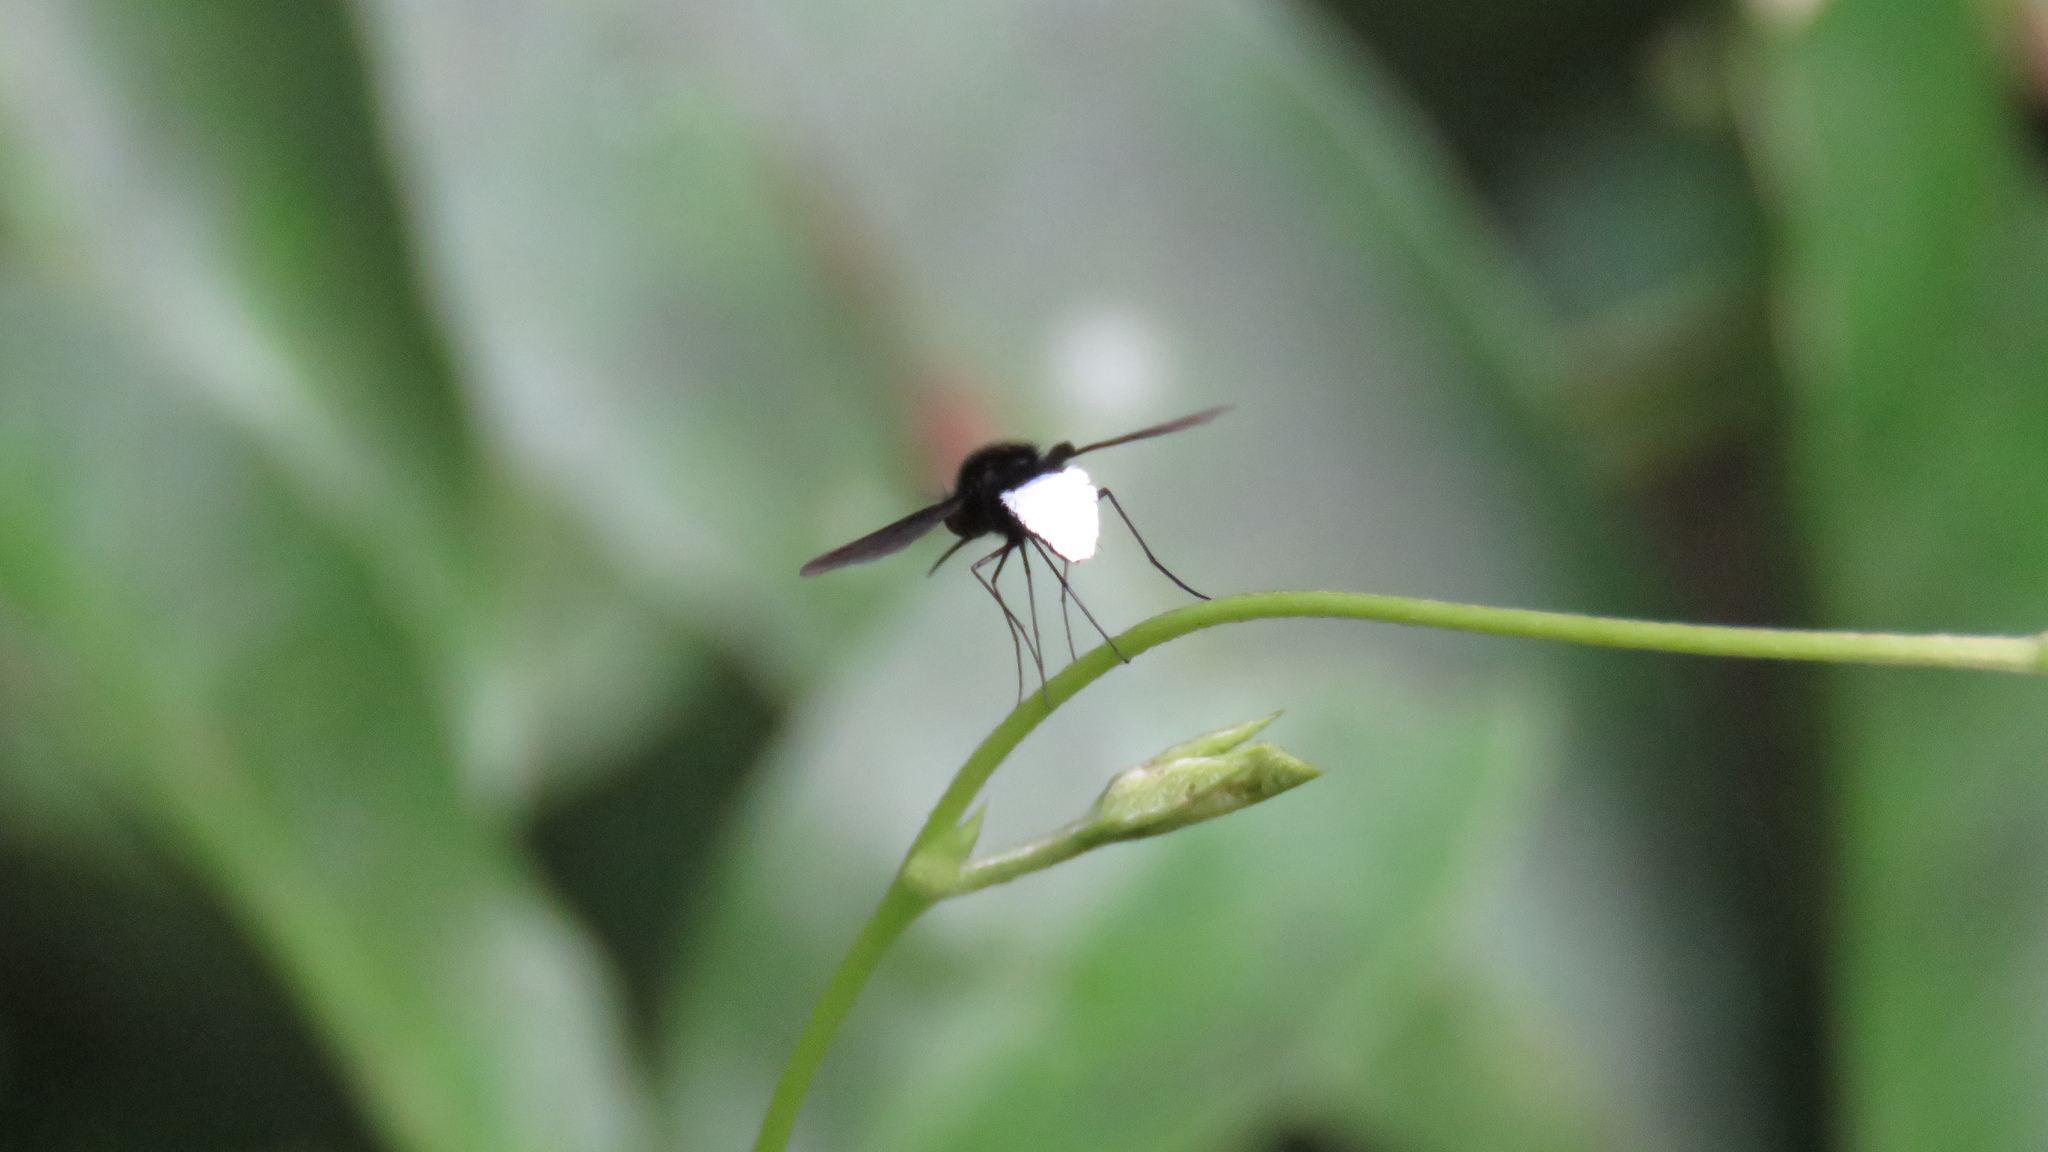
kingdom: Animalia
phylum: Arthropoda
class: Insecta
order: Diptera
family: Bombyliidae
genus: Euchariomyia
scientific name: Euchariomyia dives
